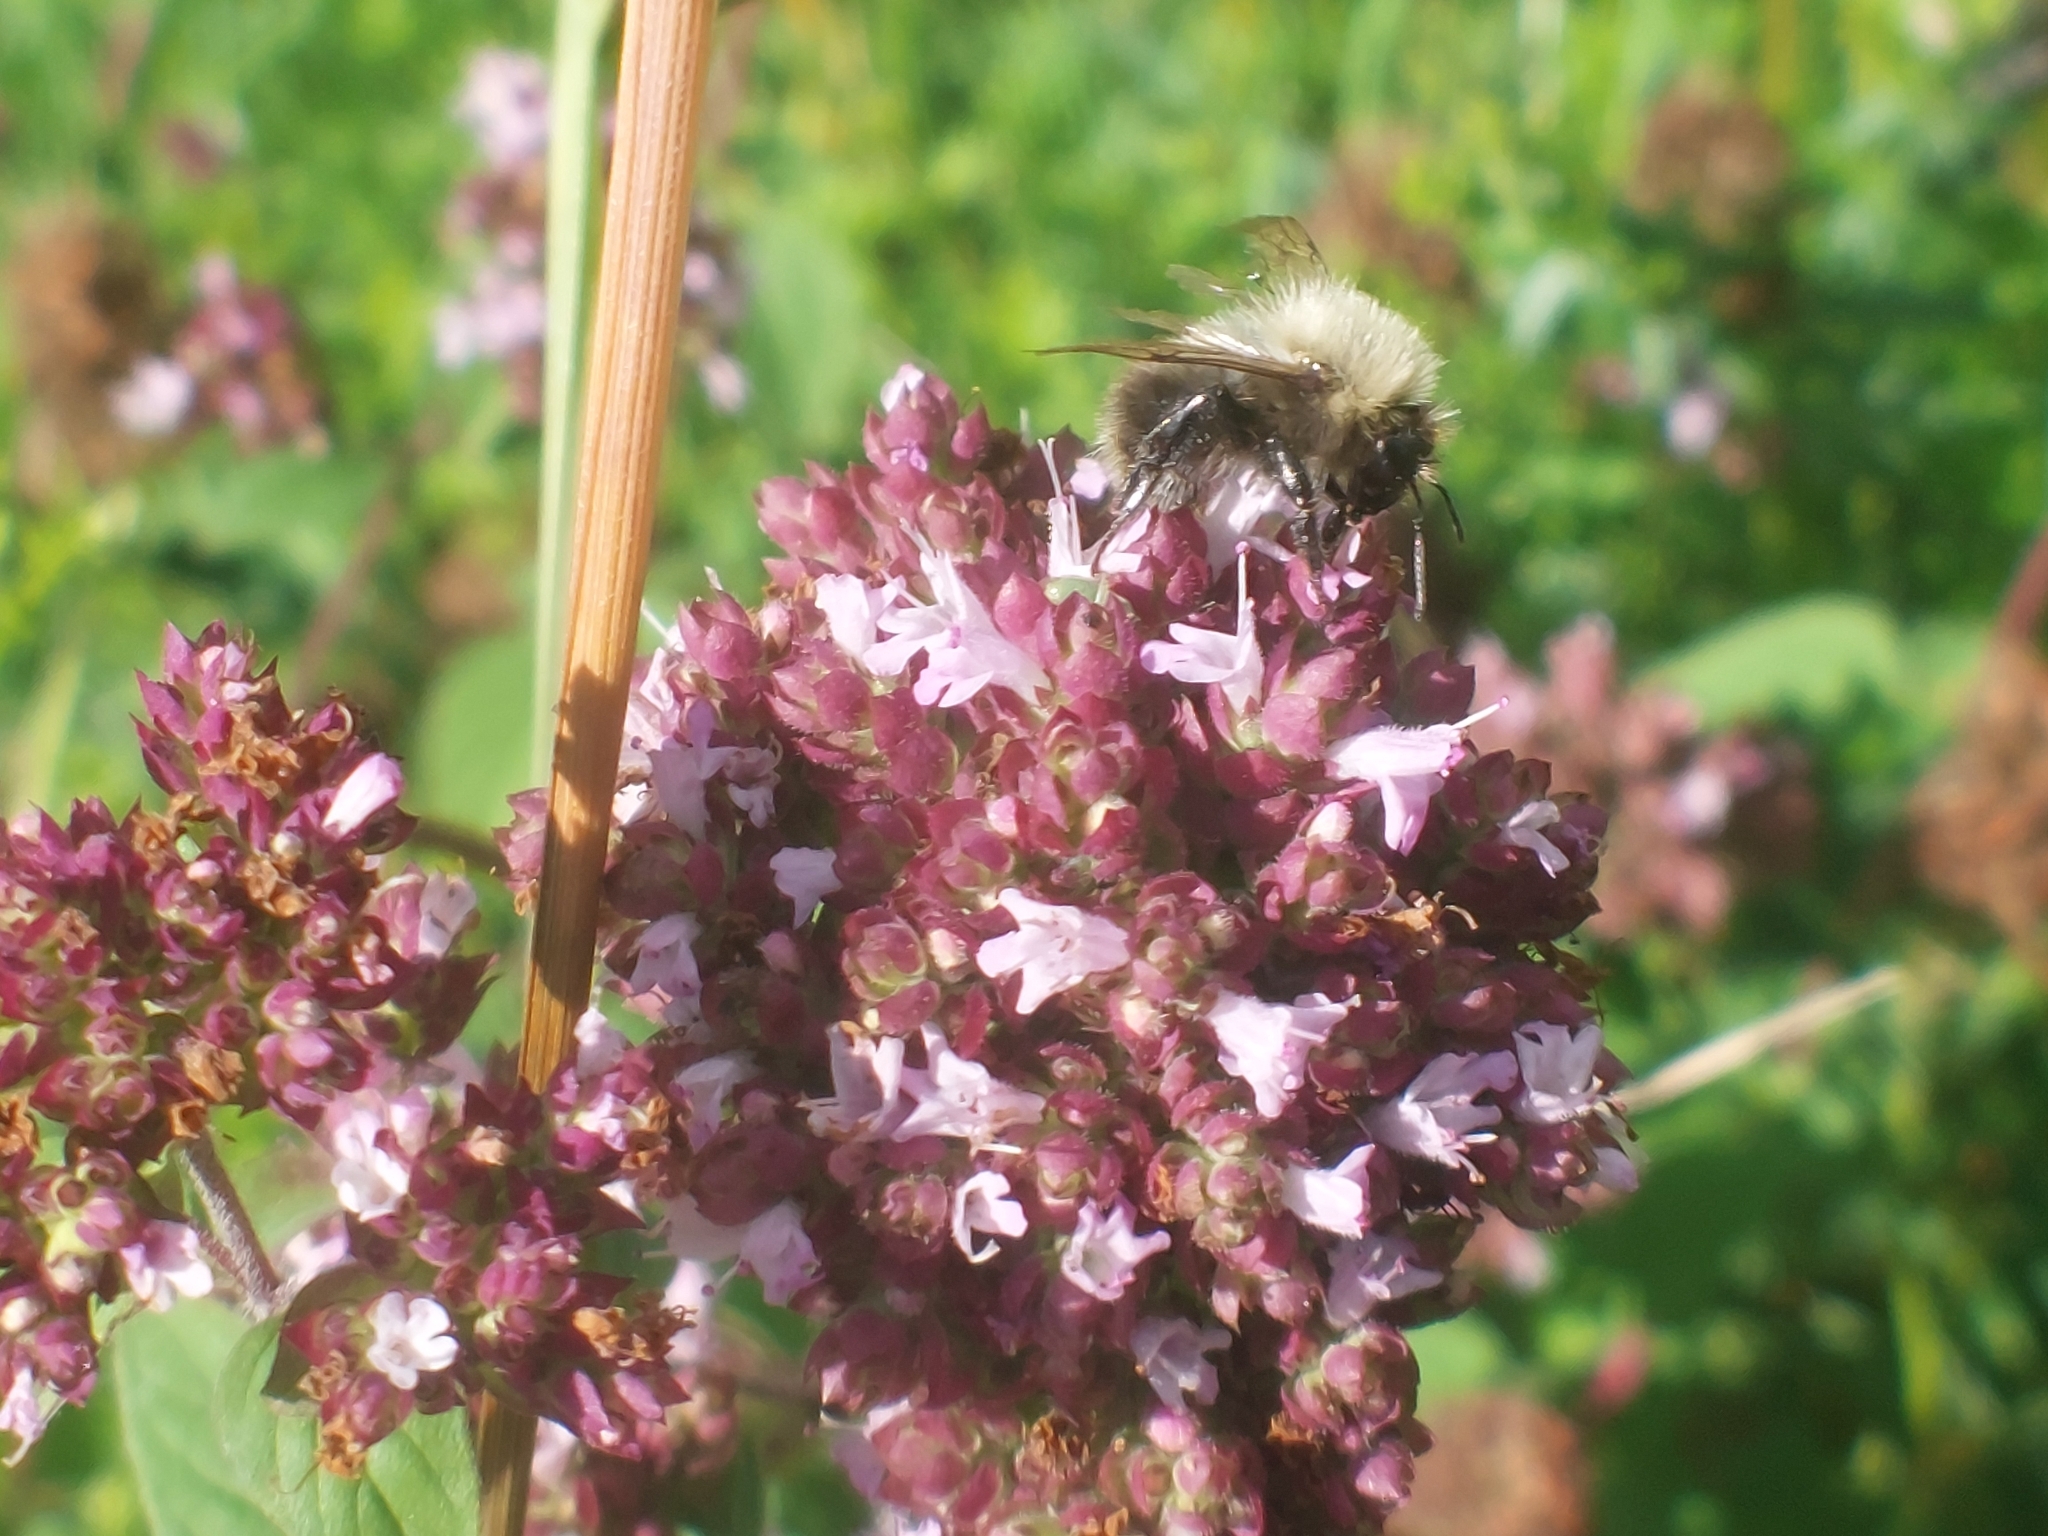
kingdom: Animalia
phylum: Arthropoda
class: Insecta
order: Hymenoptera
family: Apidae
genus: Bombus
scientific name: Bombus pascuorum
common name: Common carder bee
